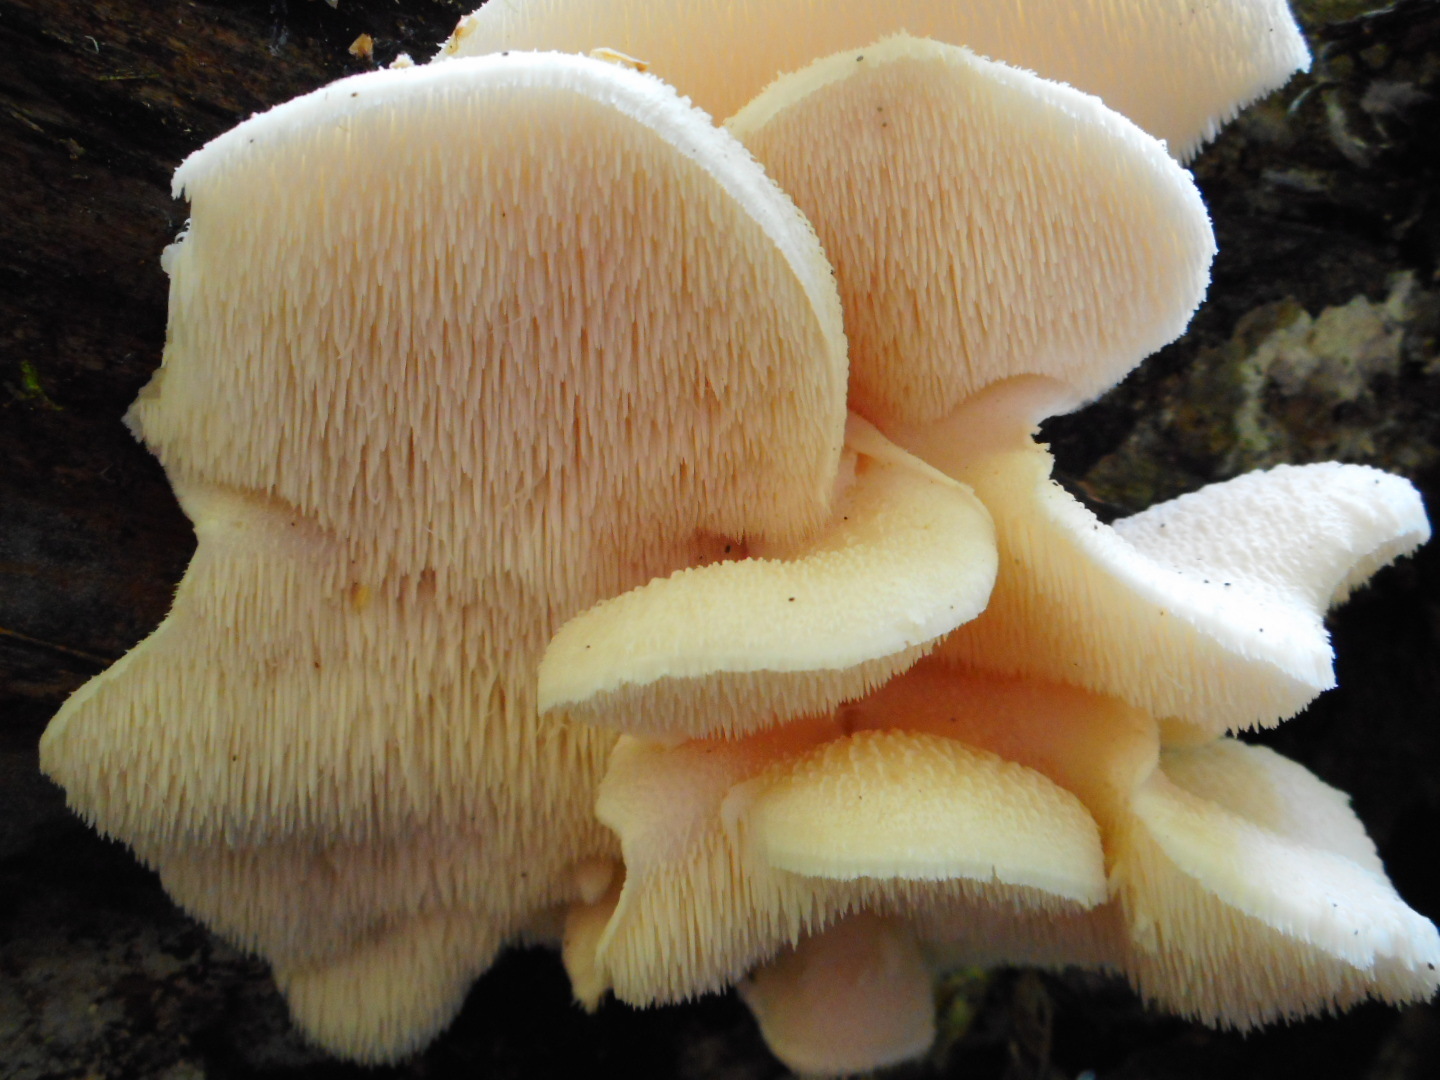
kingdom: Fungi
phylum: Basidiomycota
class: Agaricomycetes
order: Russulales
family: Hericiaceae
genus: Hericium
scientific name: Hericium cirrhatum
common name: Tiered tooth
